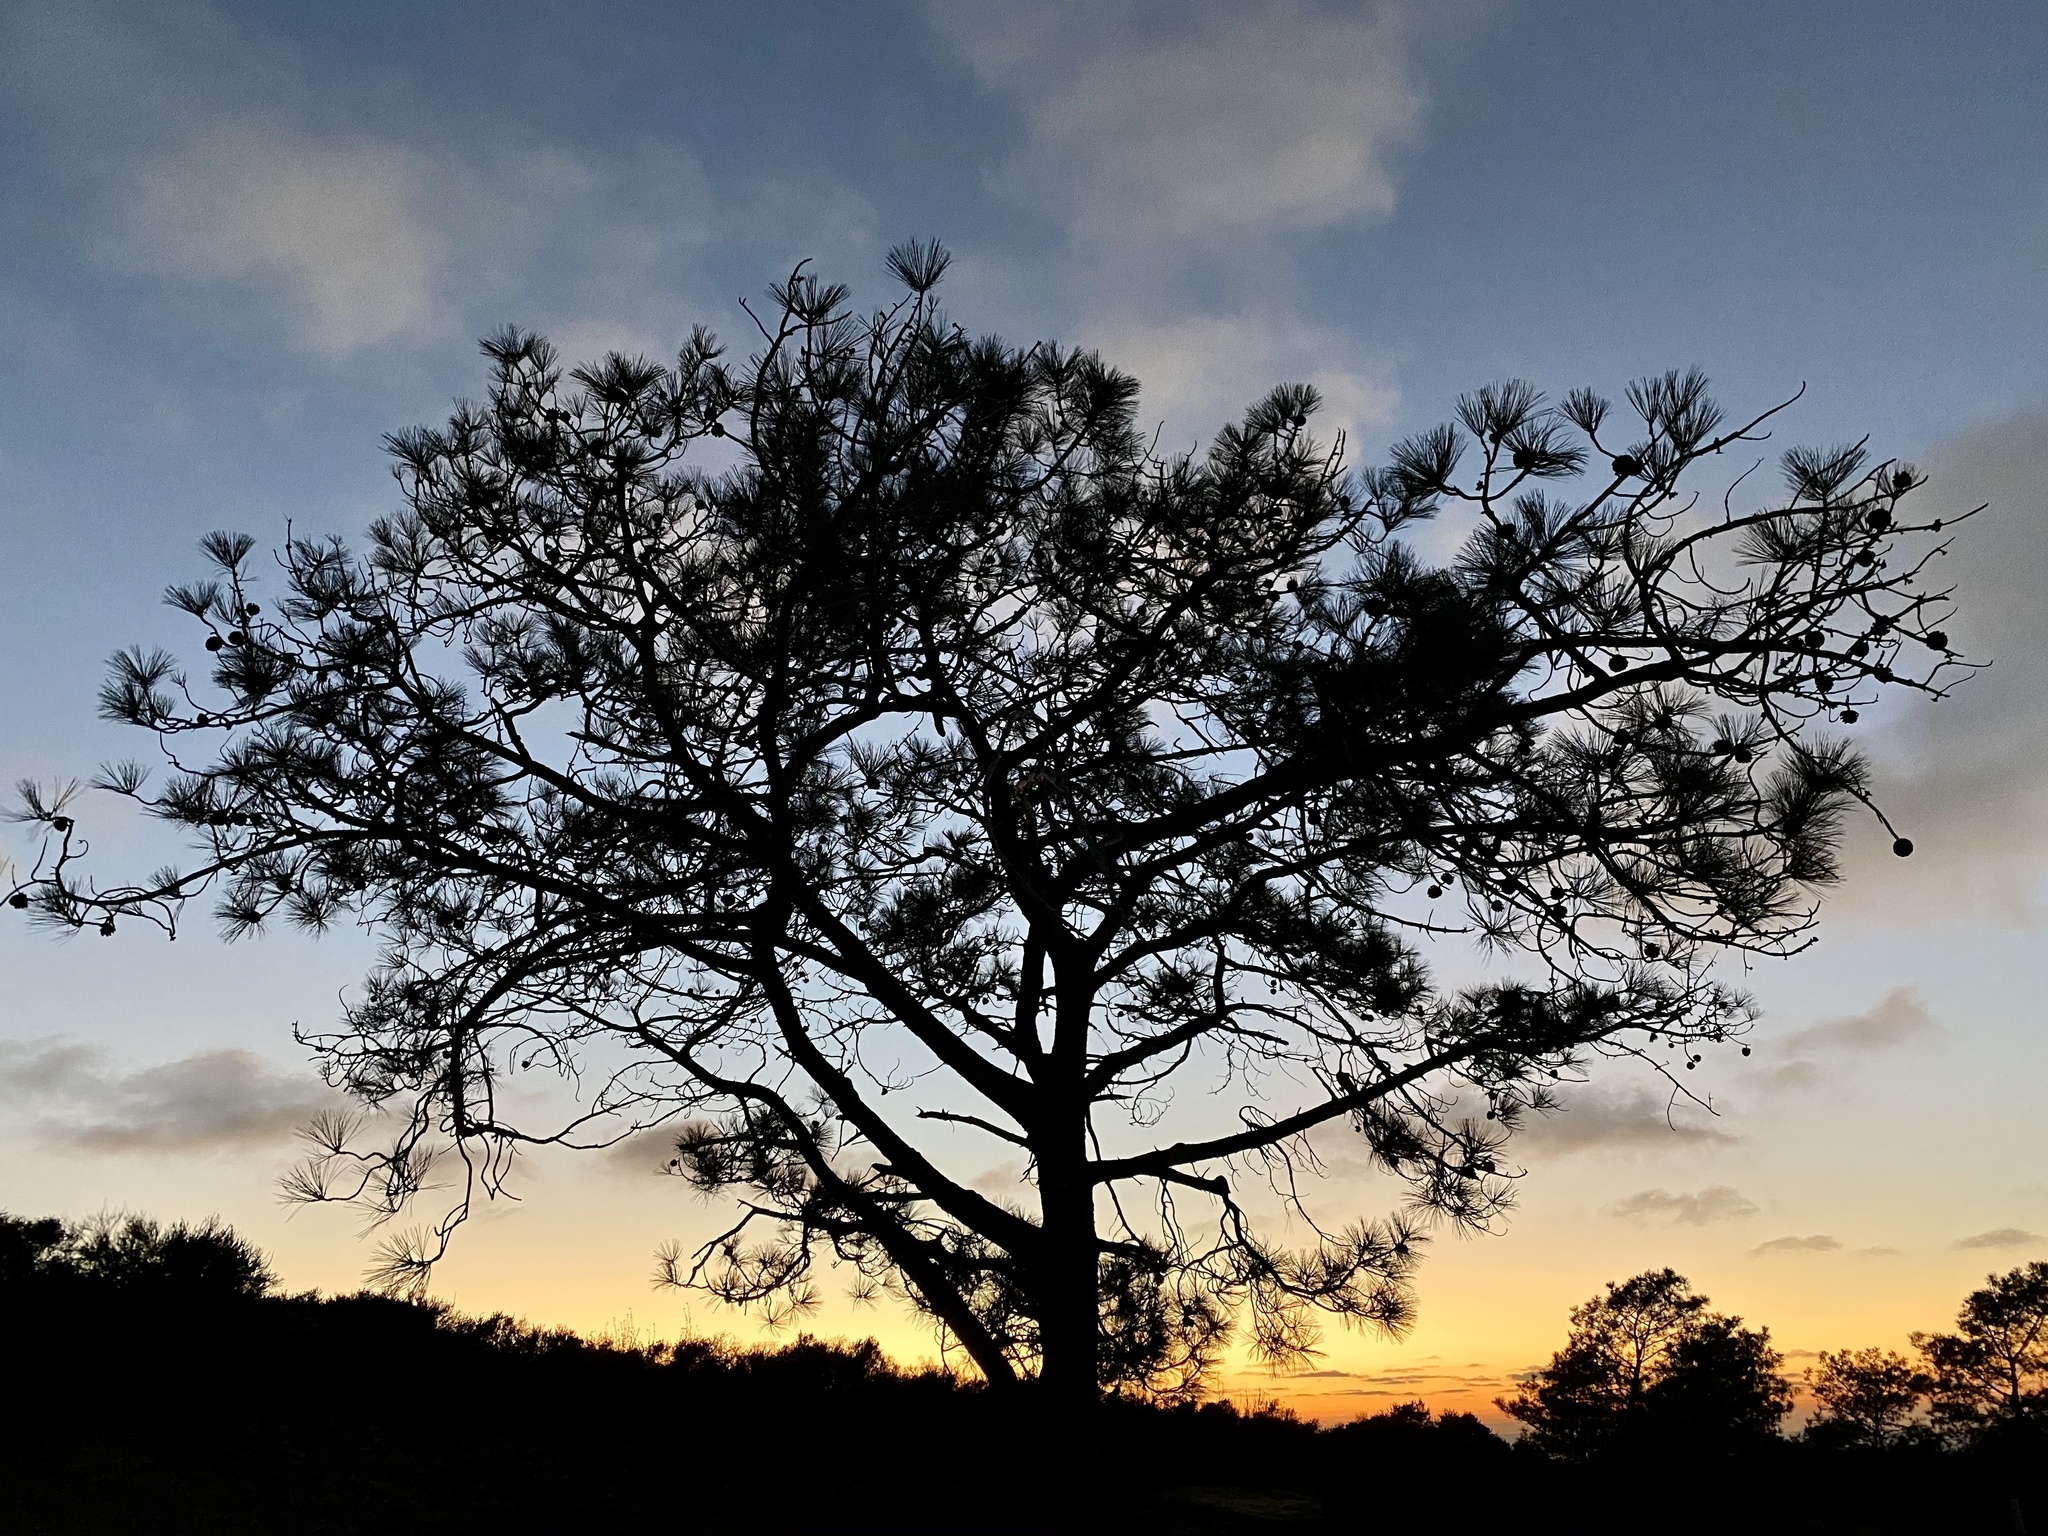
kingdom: Plantae
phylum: Tracheophyta
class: Pinopsida
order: Pinales
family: Pinaceae
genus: Pinus
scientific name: Pinus torreyana
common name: Torrey pine
